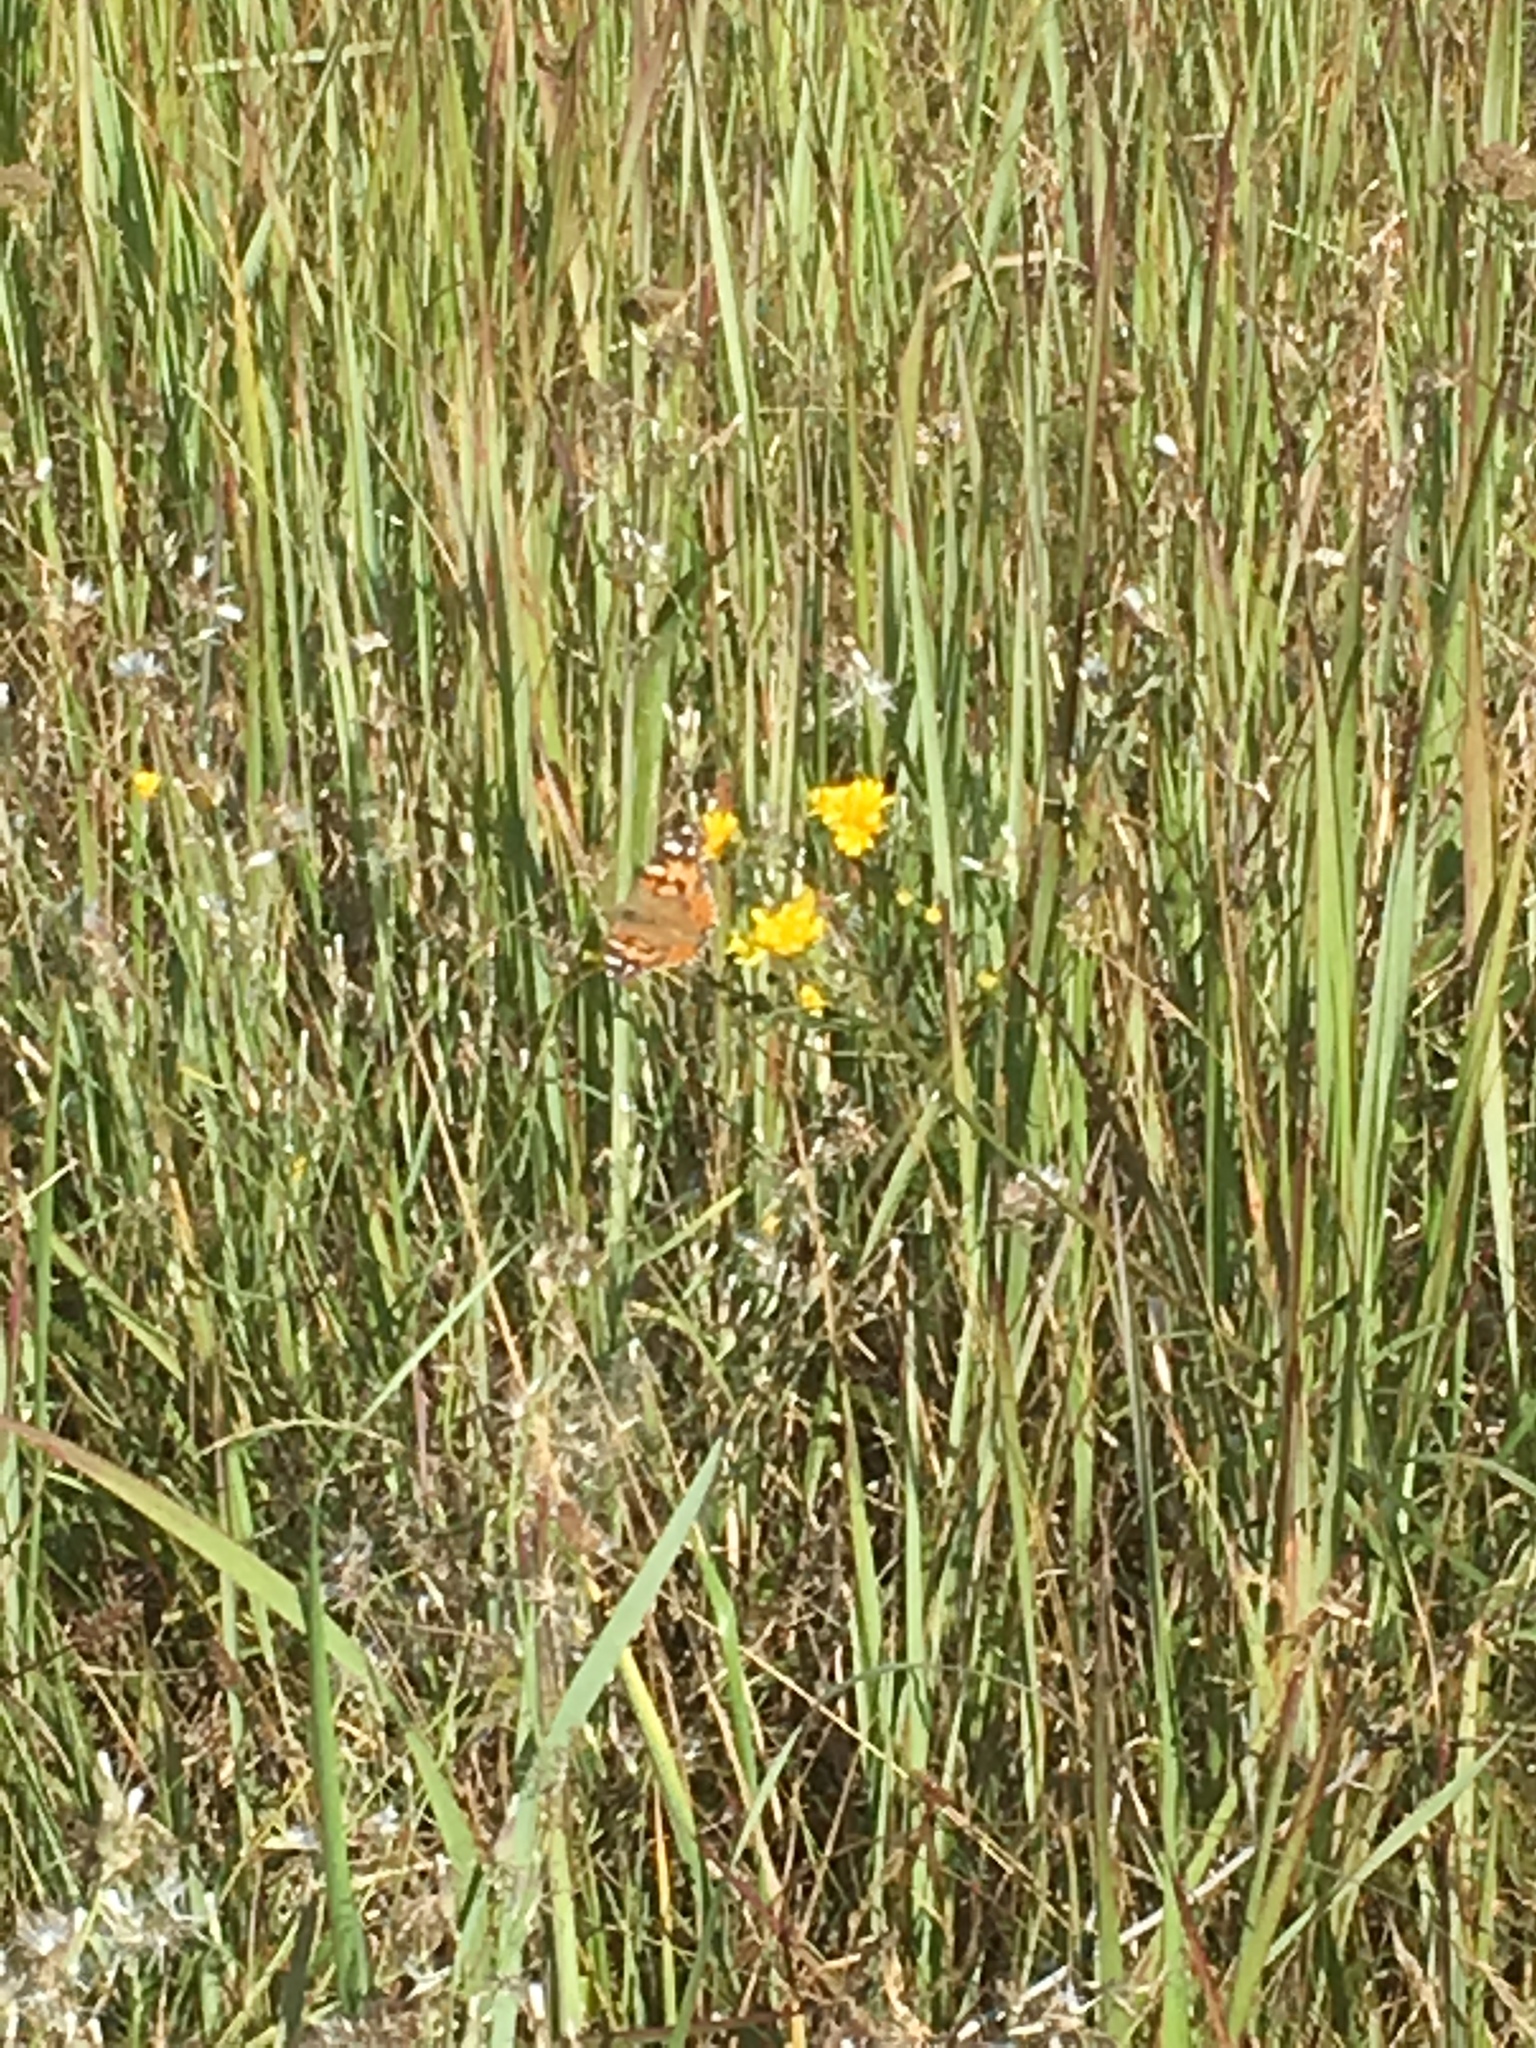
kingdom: Animalia
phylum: Arthropoda
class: Insecta
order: Lepidoptera
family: Nymphalidae
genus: Vanessa
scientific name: Vanessa cardui
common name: Painted lady
